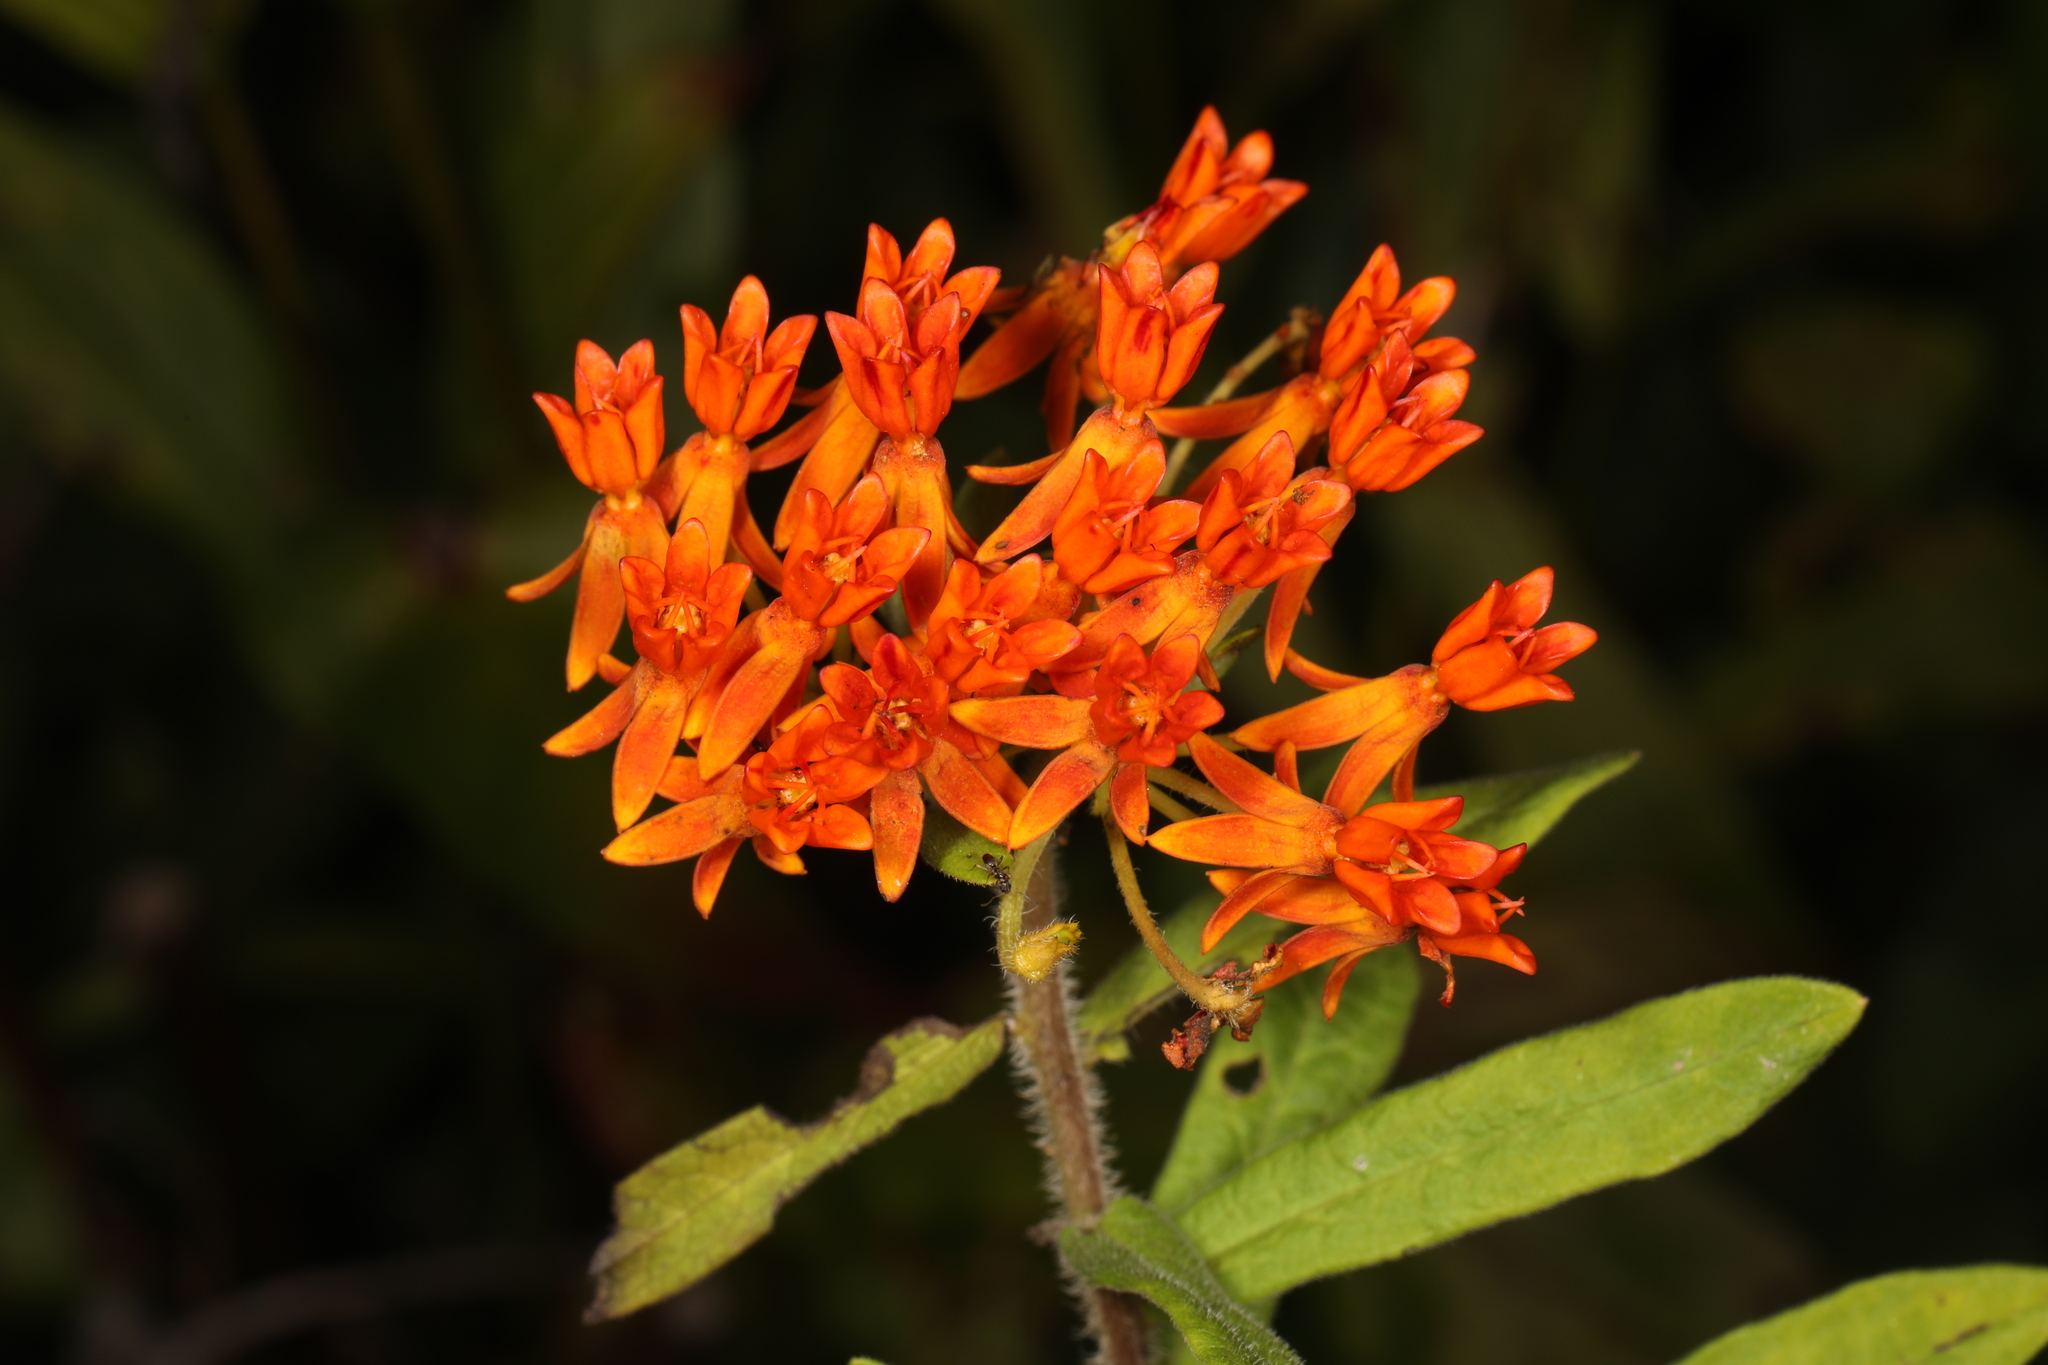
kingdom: Plantae
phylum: Tracheophyta
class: Magnoliopsida
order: Gentianales
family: Apocynaceae
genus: Asclepias
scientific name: Asclepias tuberosa
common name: Butterfly milkweed
